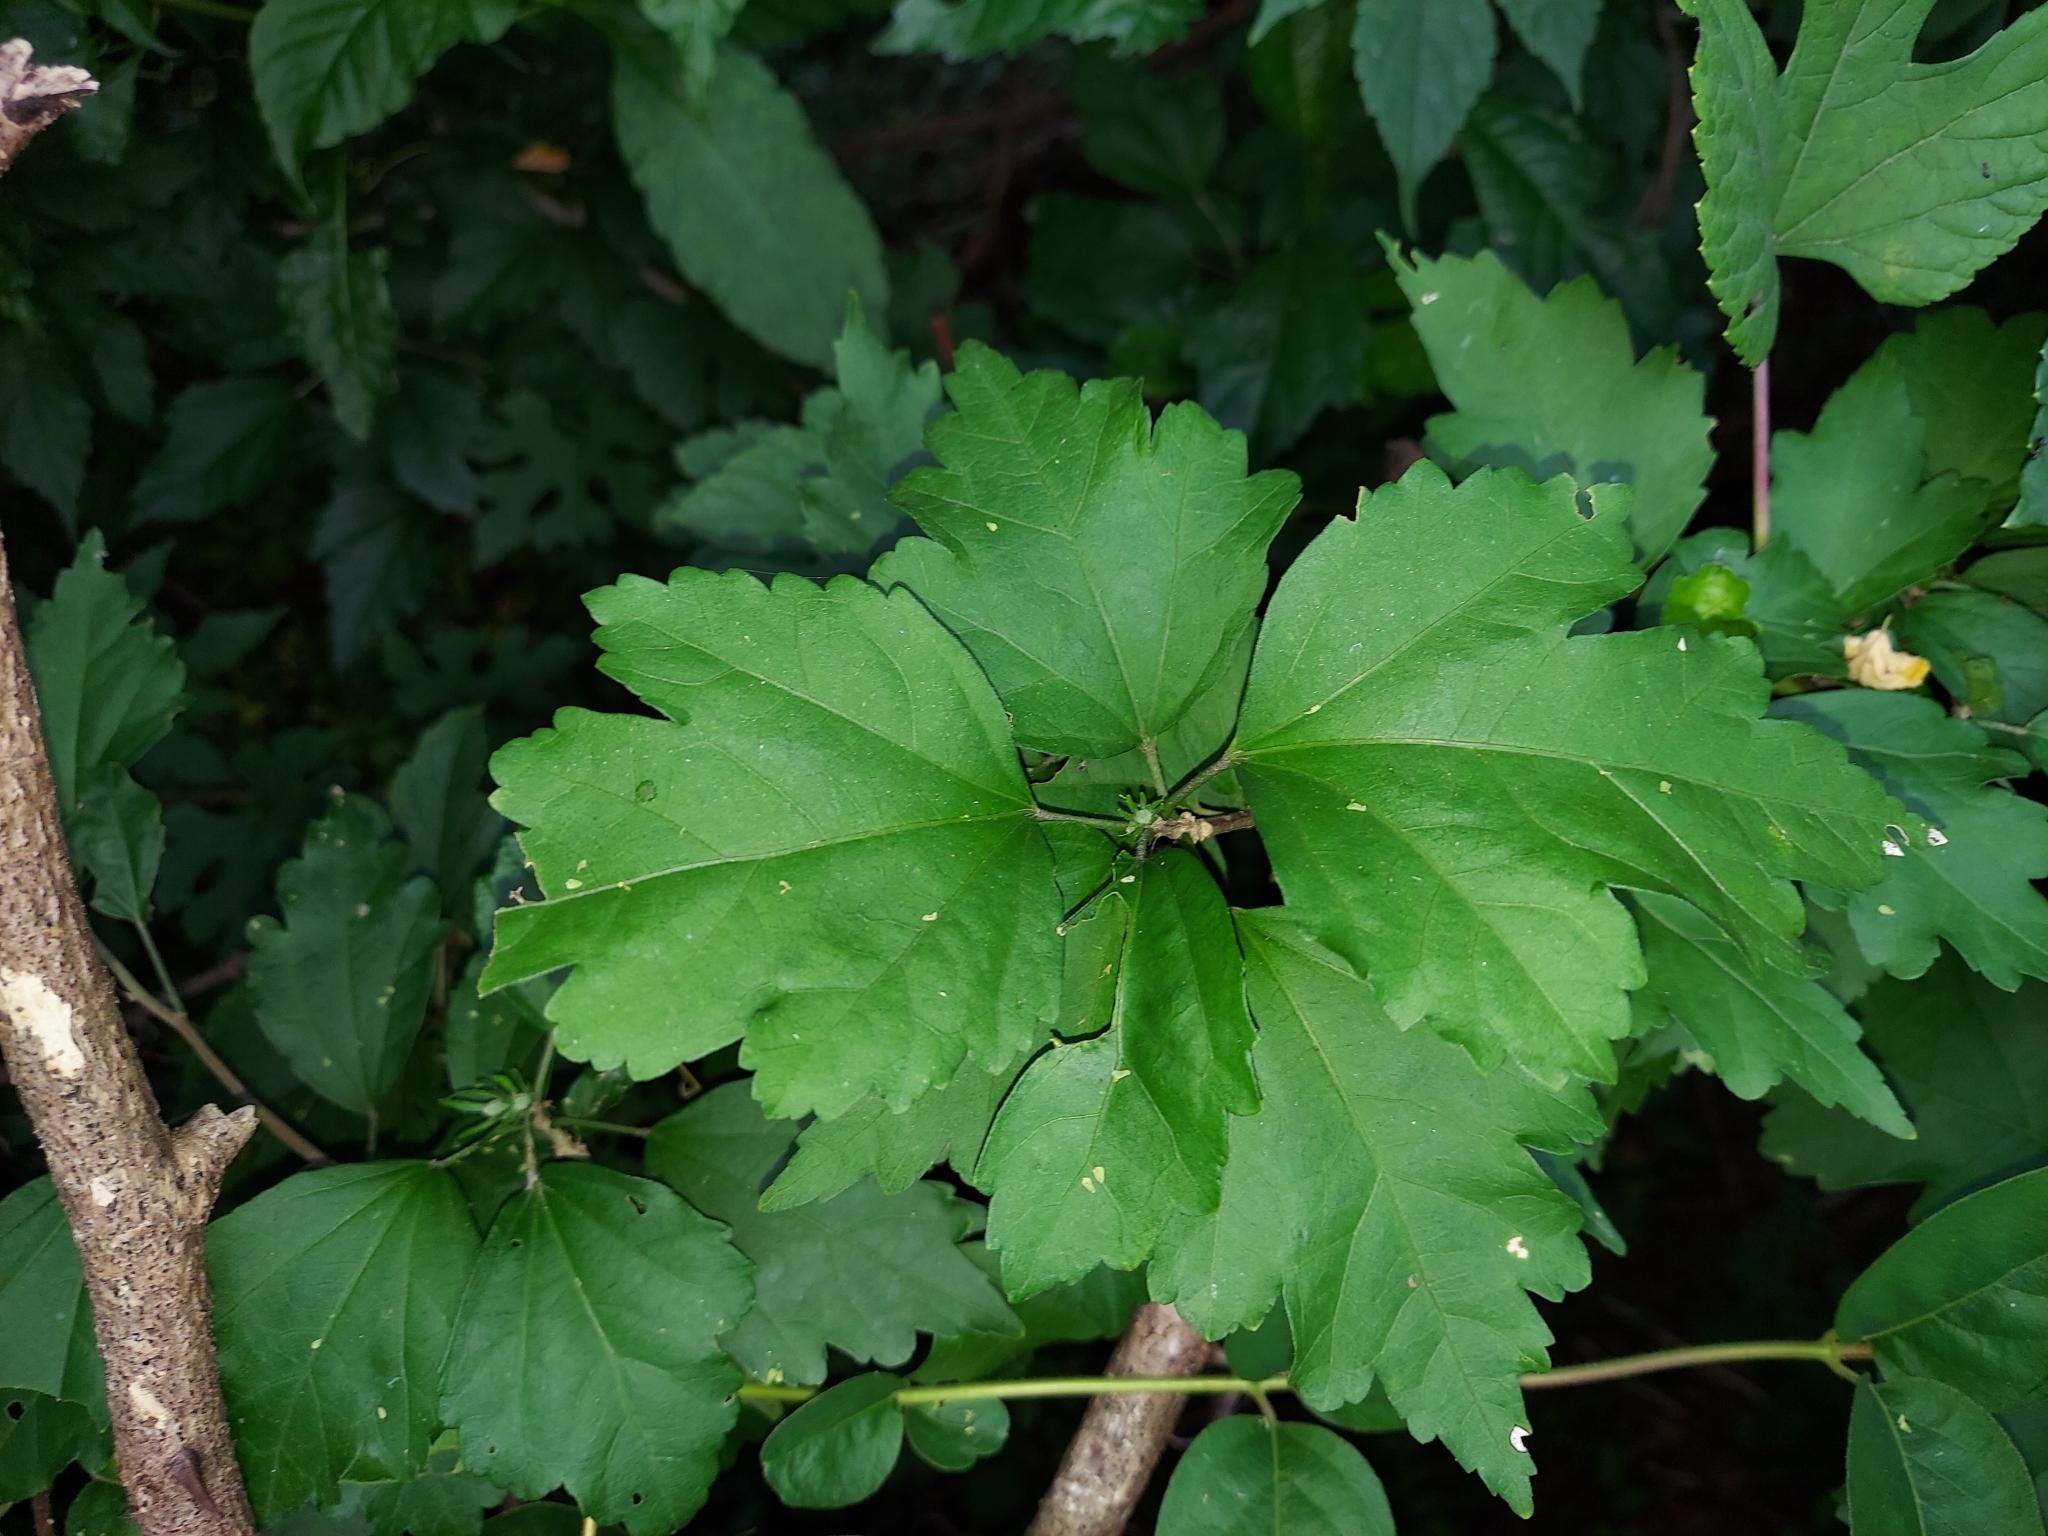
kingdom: Plantae
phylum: Tracheophyta
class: Magnoliopsida
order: Malvales
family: Malvaceae
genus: Hibiscus
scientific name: Hibiscus syriacus
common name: Syrian ketmia
